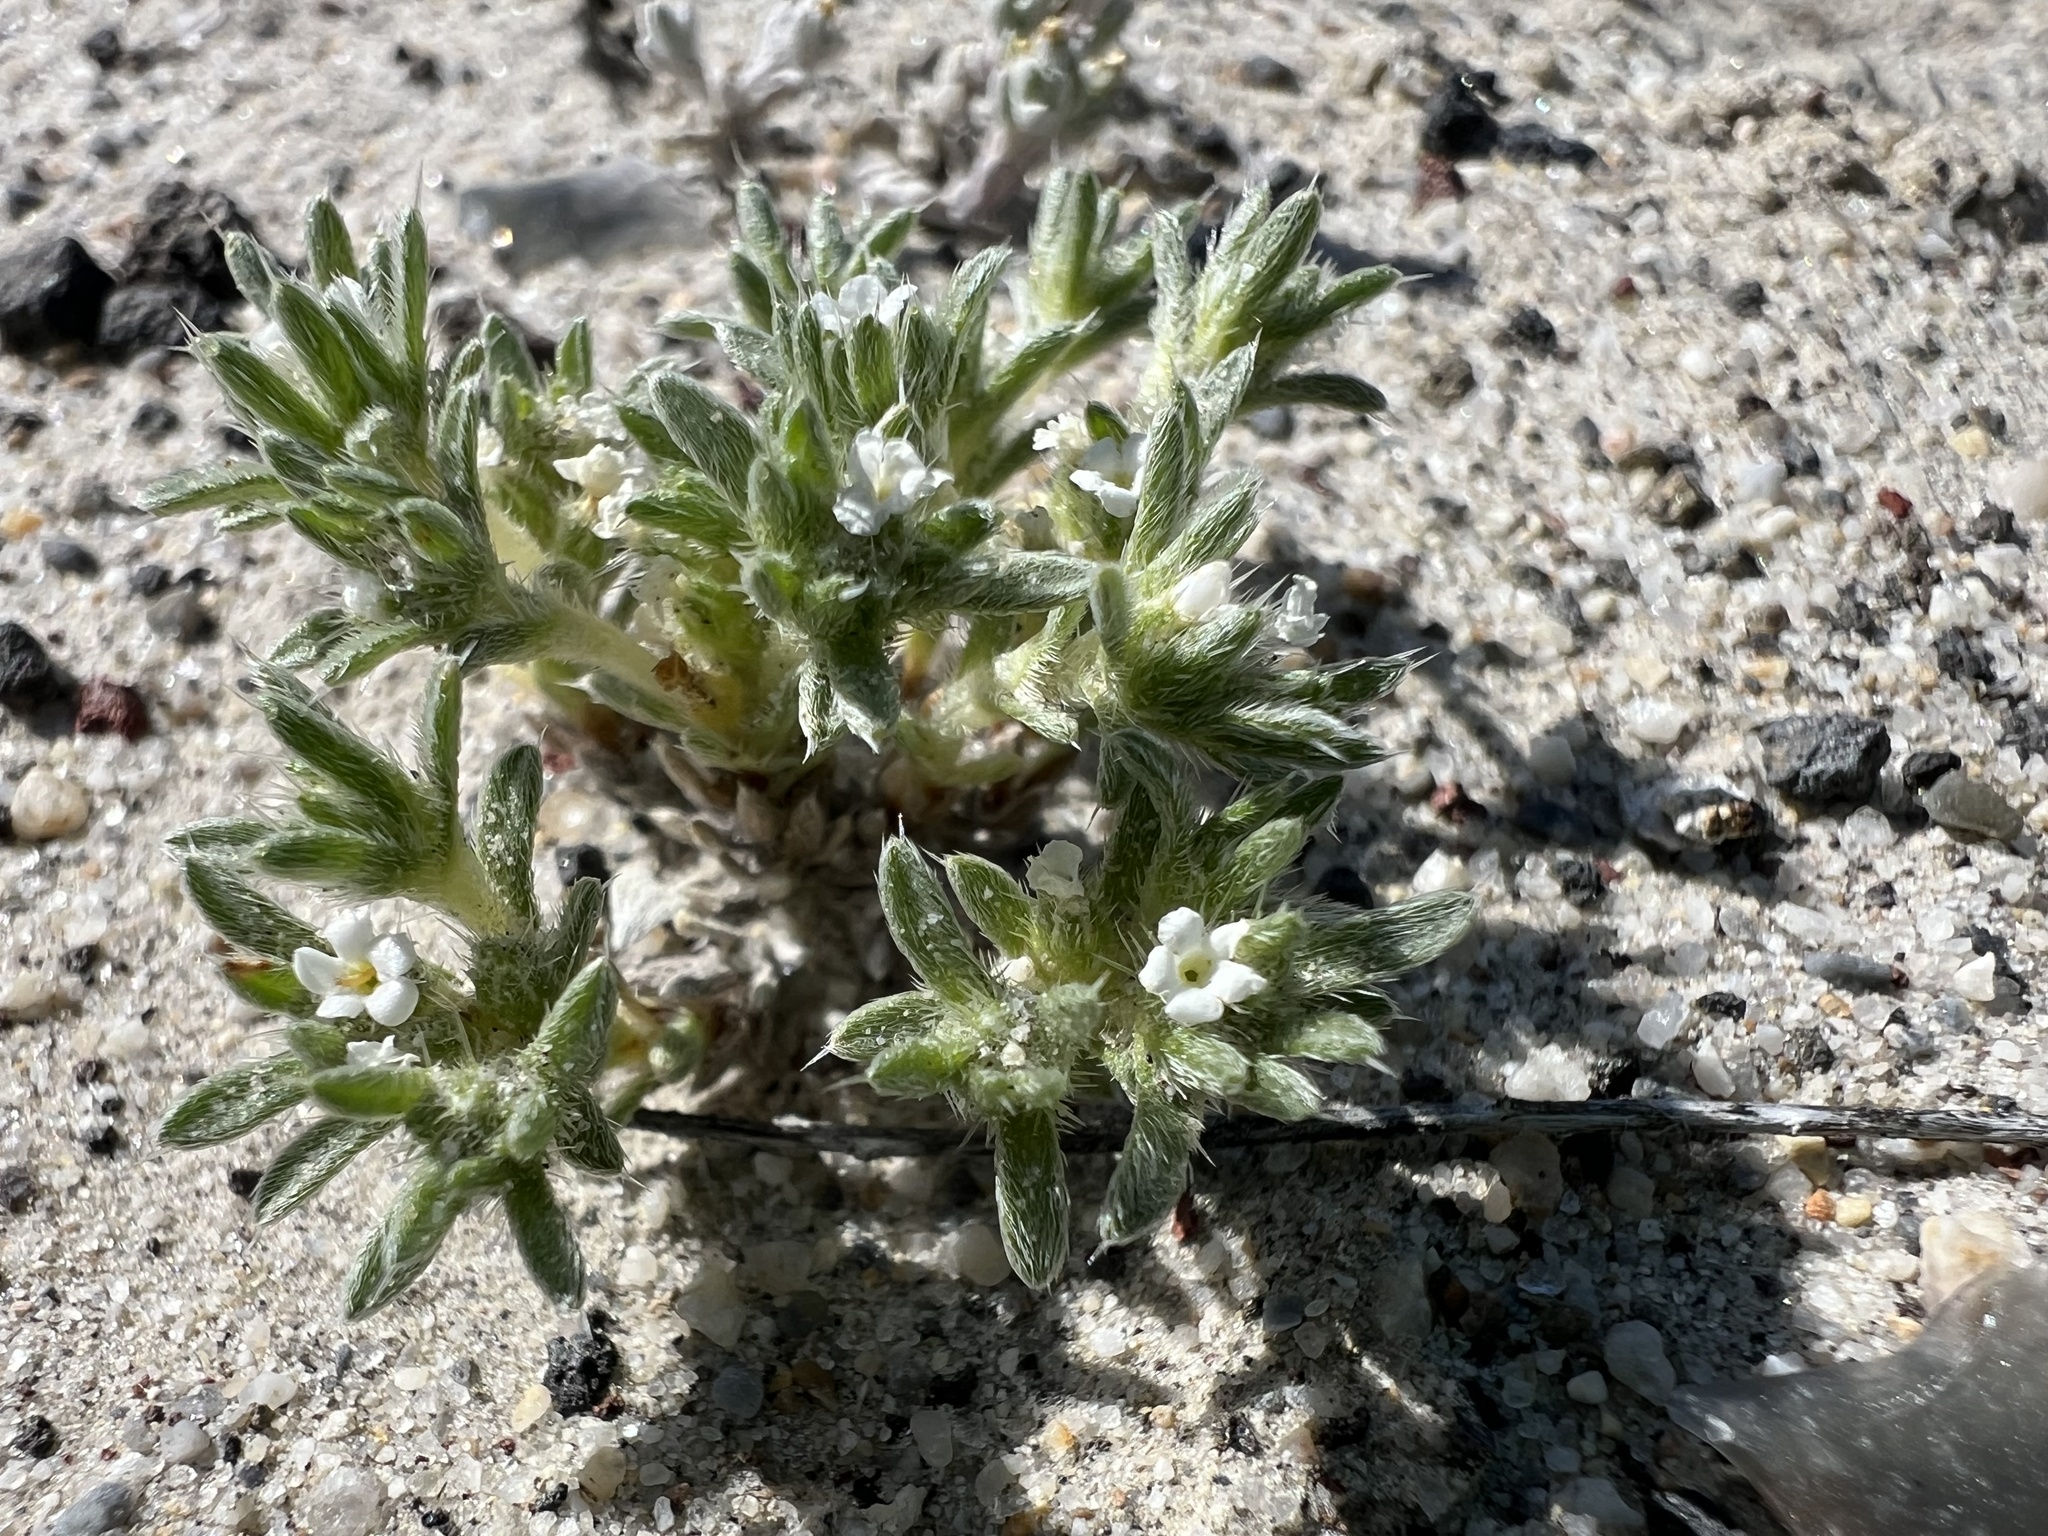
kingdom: Plantae
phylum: Tracheophyta
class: Magnoliopsida
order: Boraginales
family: Boraginaceae
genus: Greeneocharis
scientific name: Greeneocharis circumscissa
